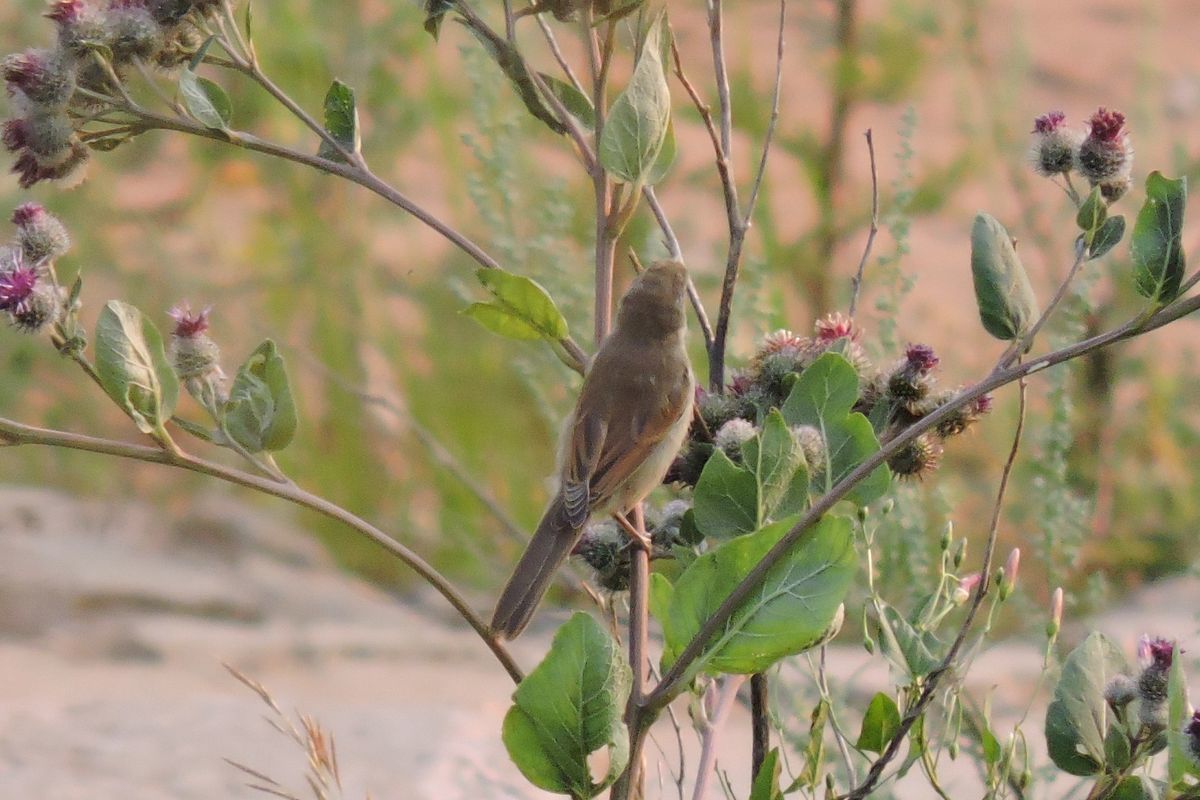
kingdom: Animalia
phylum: Chordata
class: Aves
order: Passeriformes
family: Sylviidae
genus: Sylvia
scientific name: Sylvia communis
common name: Common whitethroat
